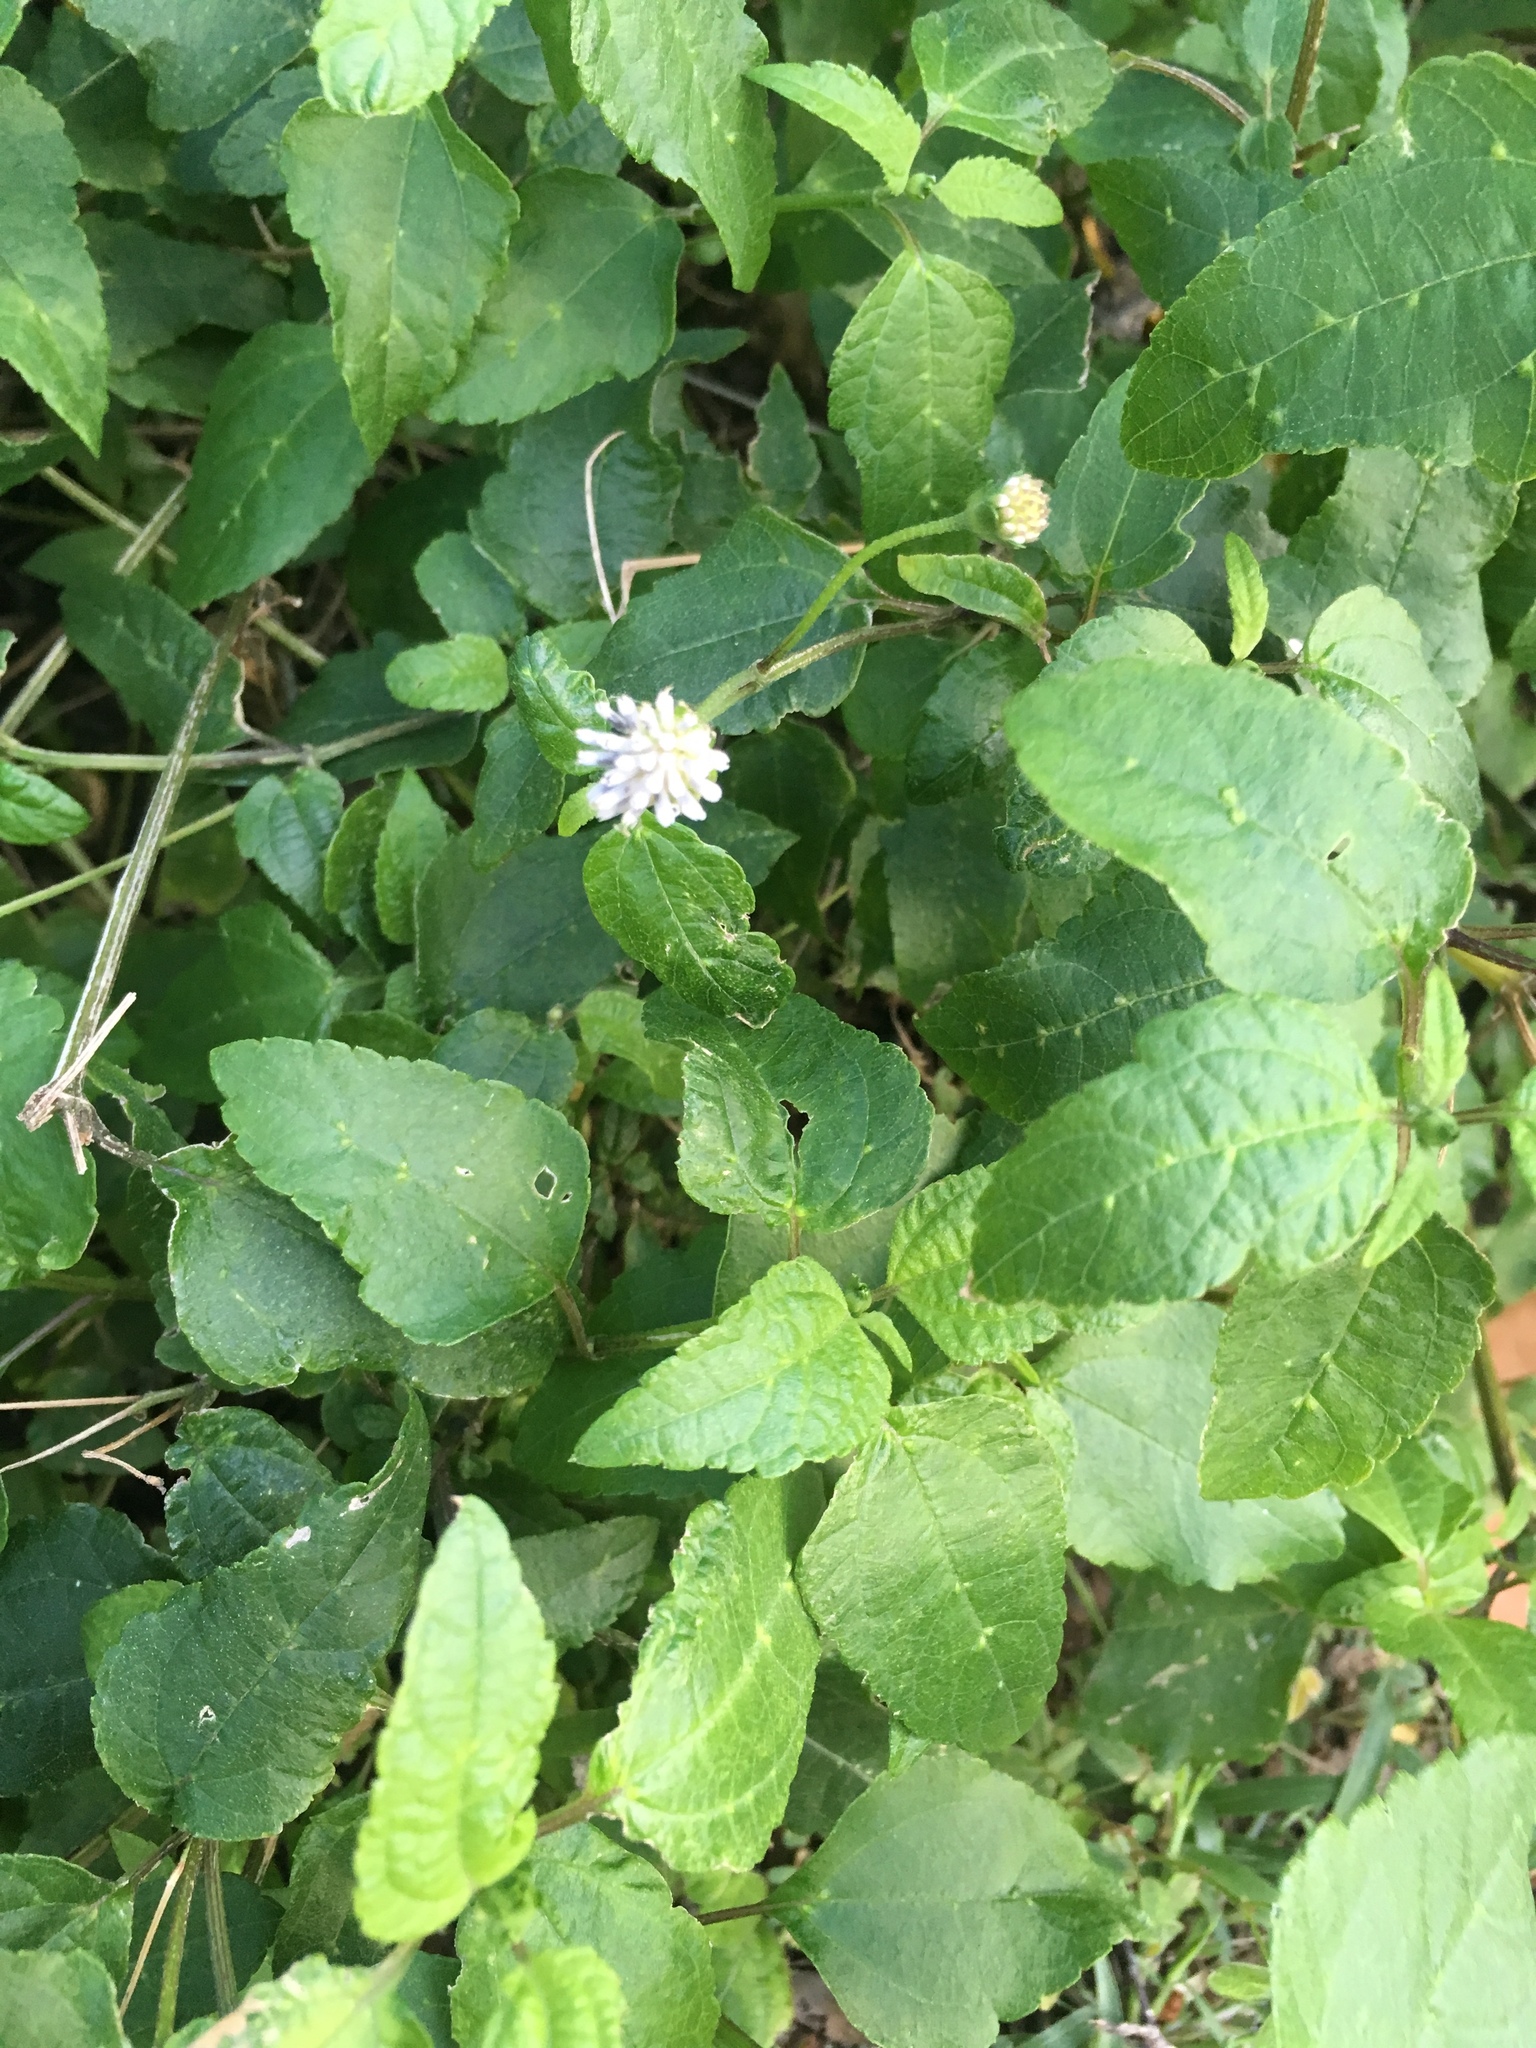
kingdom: Plantae
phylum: Tracheophyta
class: Magnoliopsida
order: Asterales
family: Asteraceae
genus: Melanthera
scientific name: Melanthera nivea
